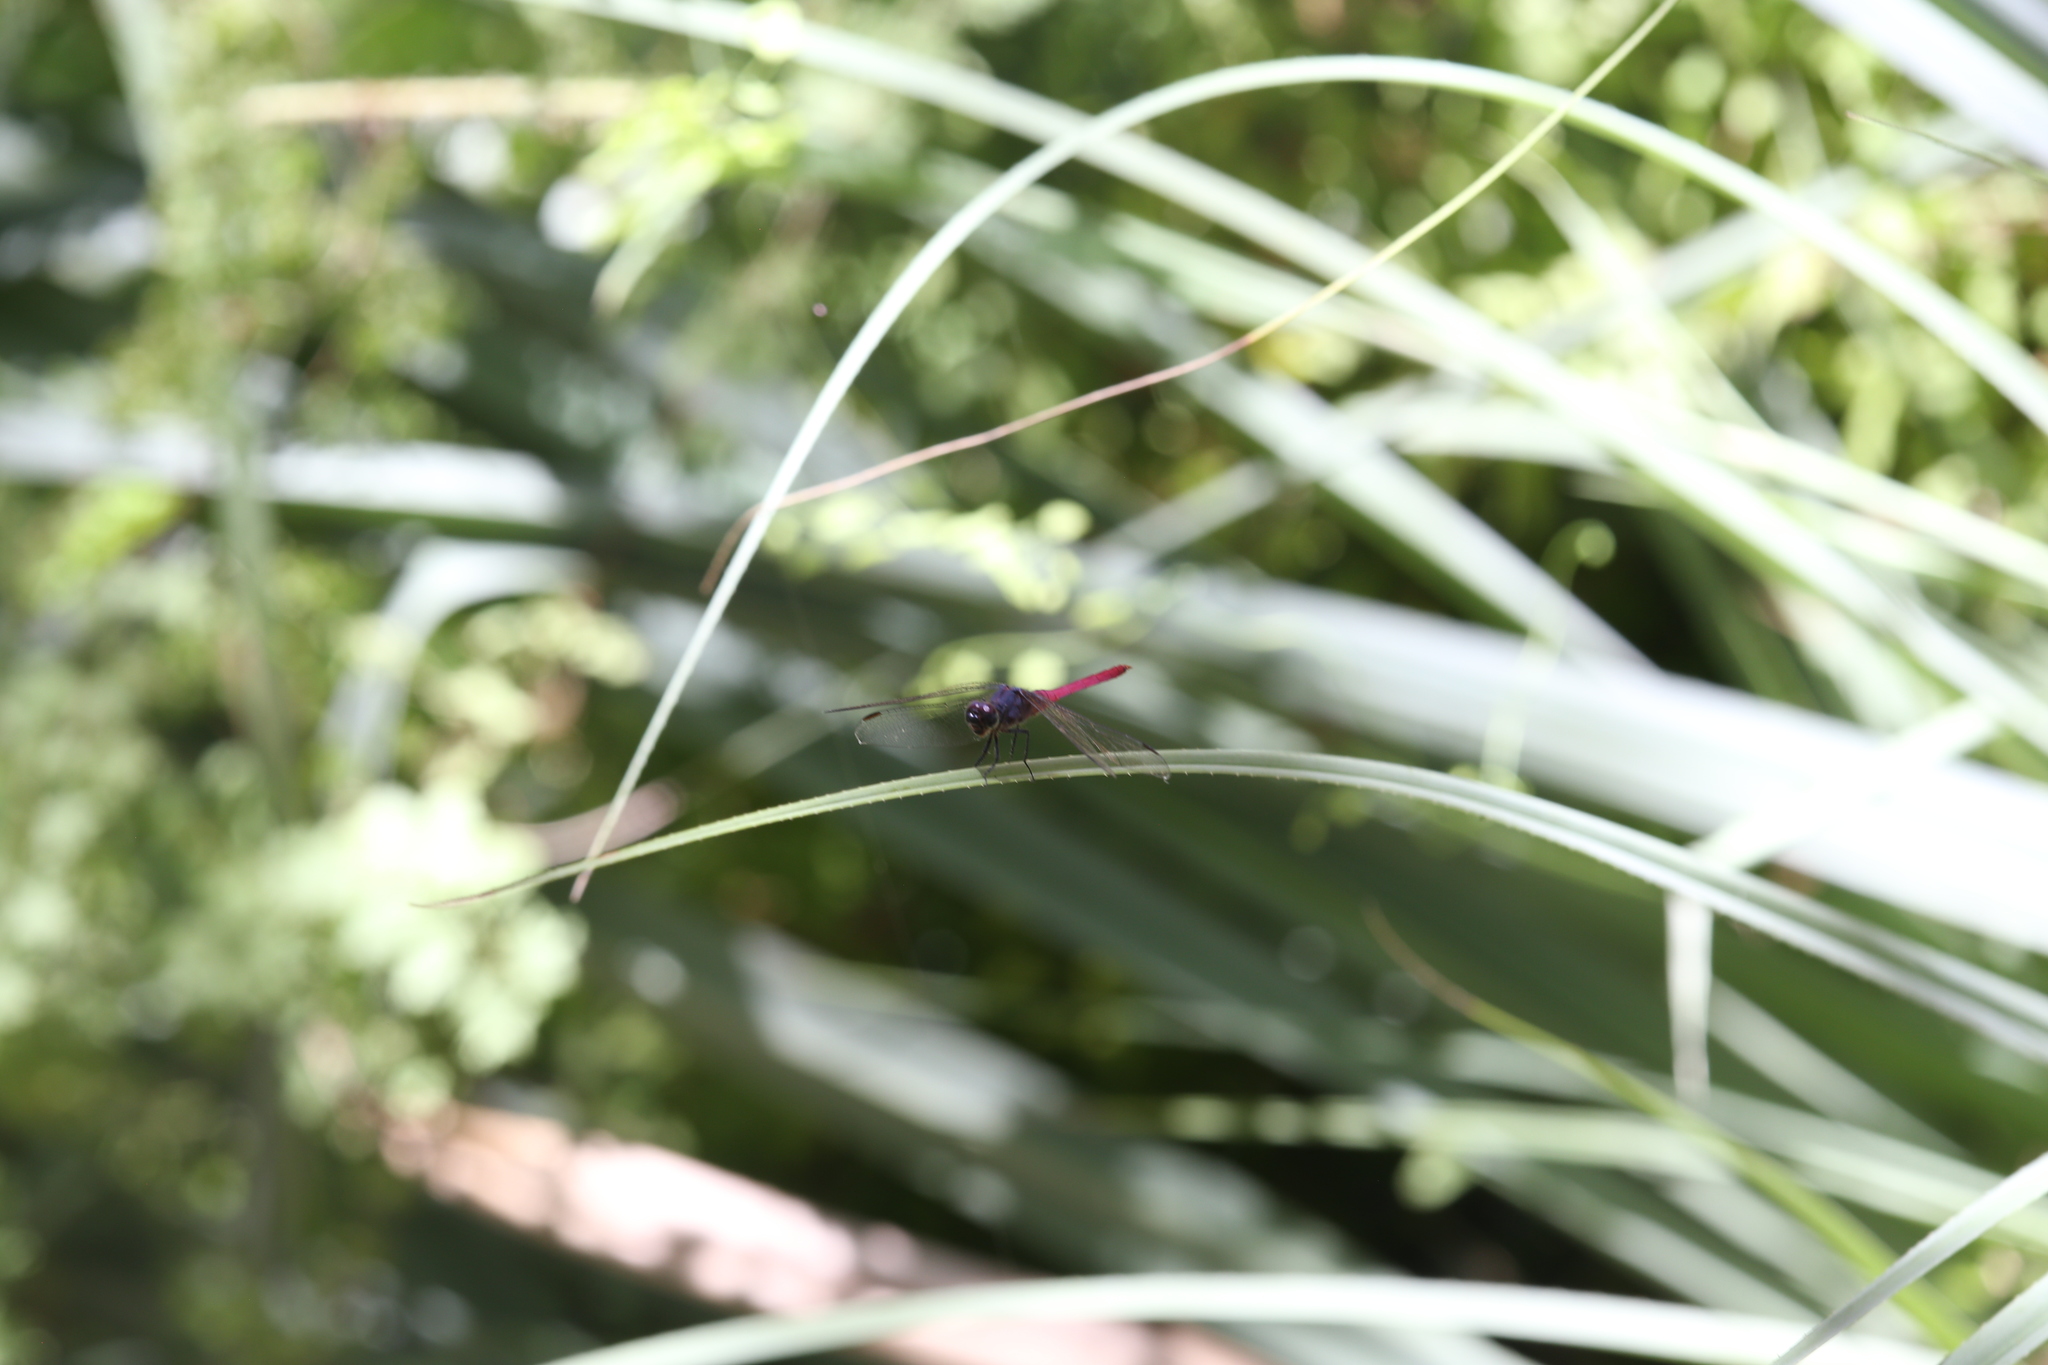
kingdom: Animalia
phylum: Arthropoda
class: Insecta
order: Odonata
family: Libellulidae
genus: Orthetrum
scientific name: Orthetrum migratum
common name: Rosy skimmer
